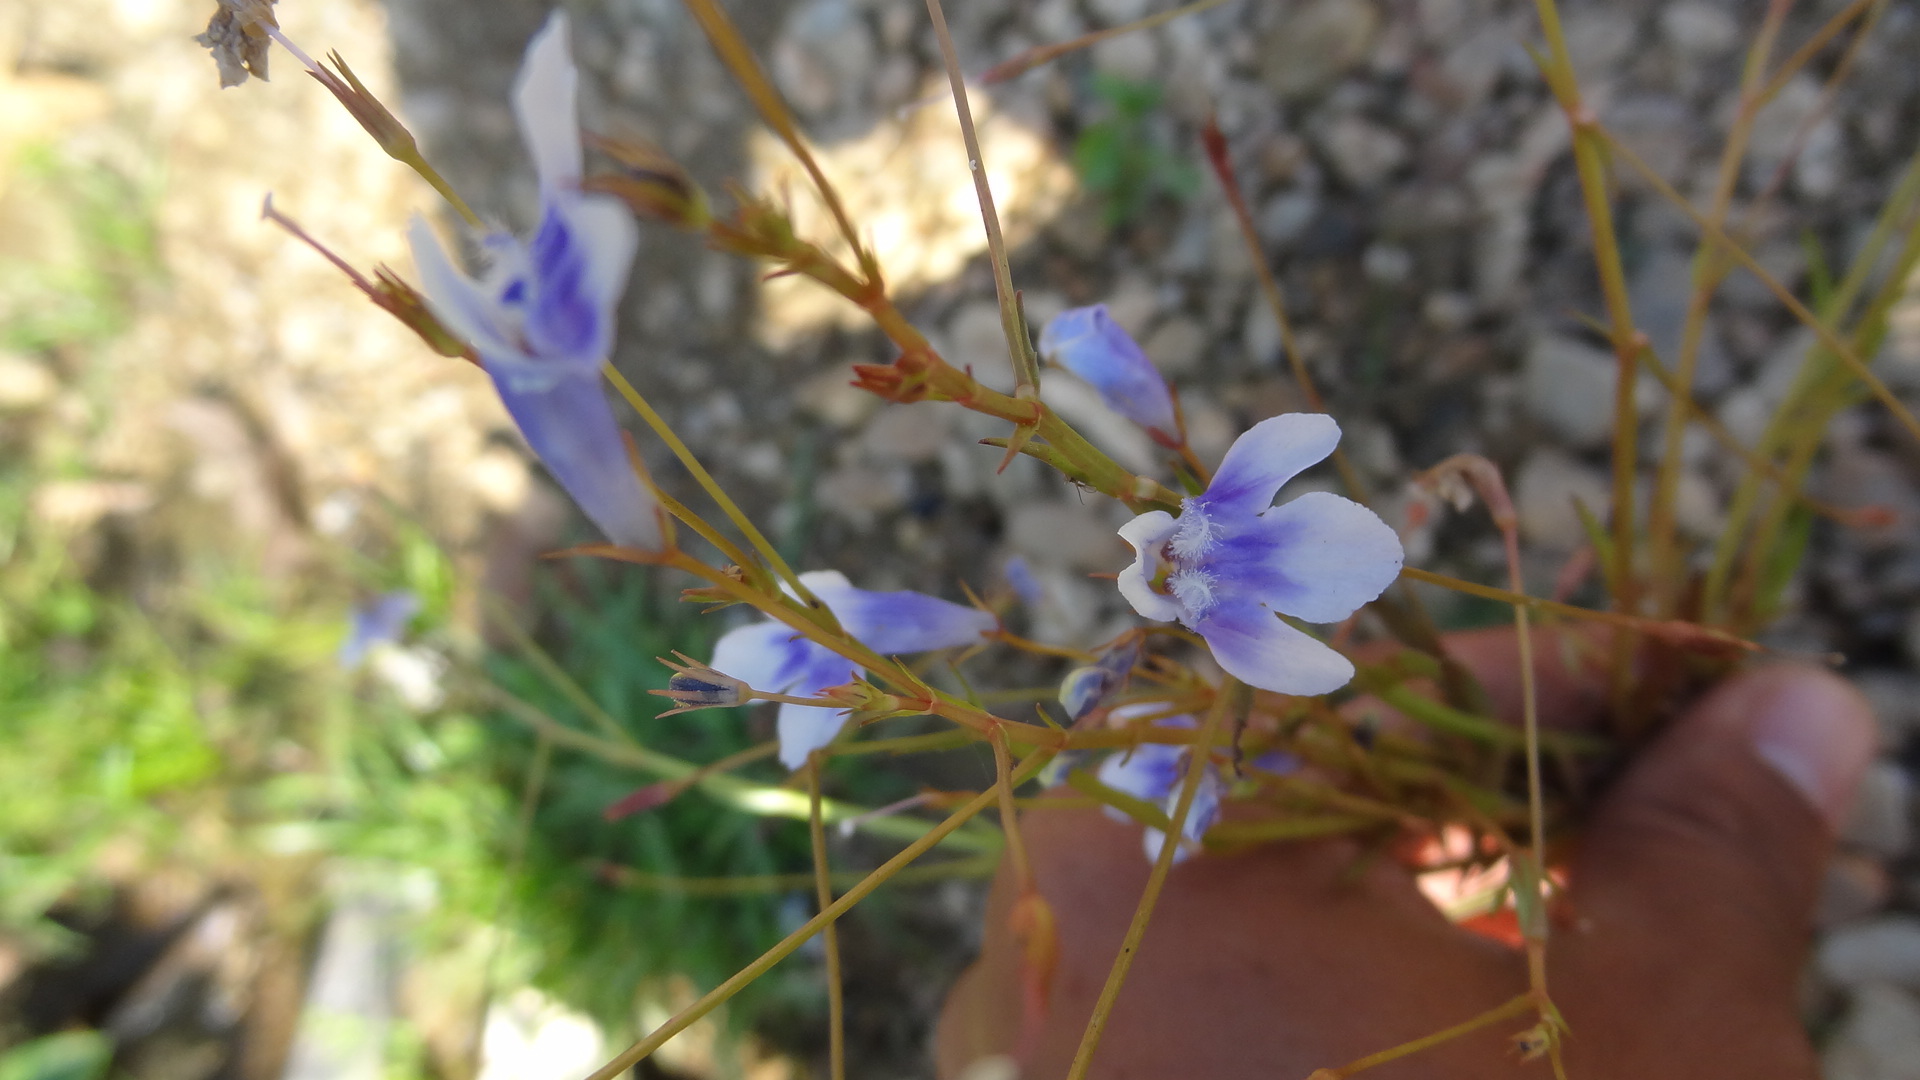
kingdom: Plantae
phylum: Tracheophyta
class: Magnoliopsida
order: Lamiales
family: Linderniaceae
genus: Lindernia
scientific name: Lindernia hyssopioides
